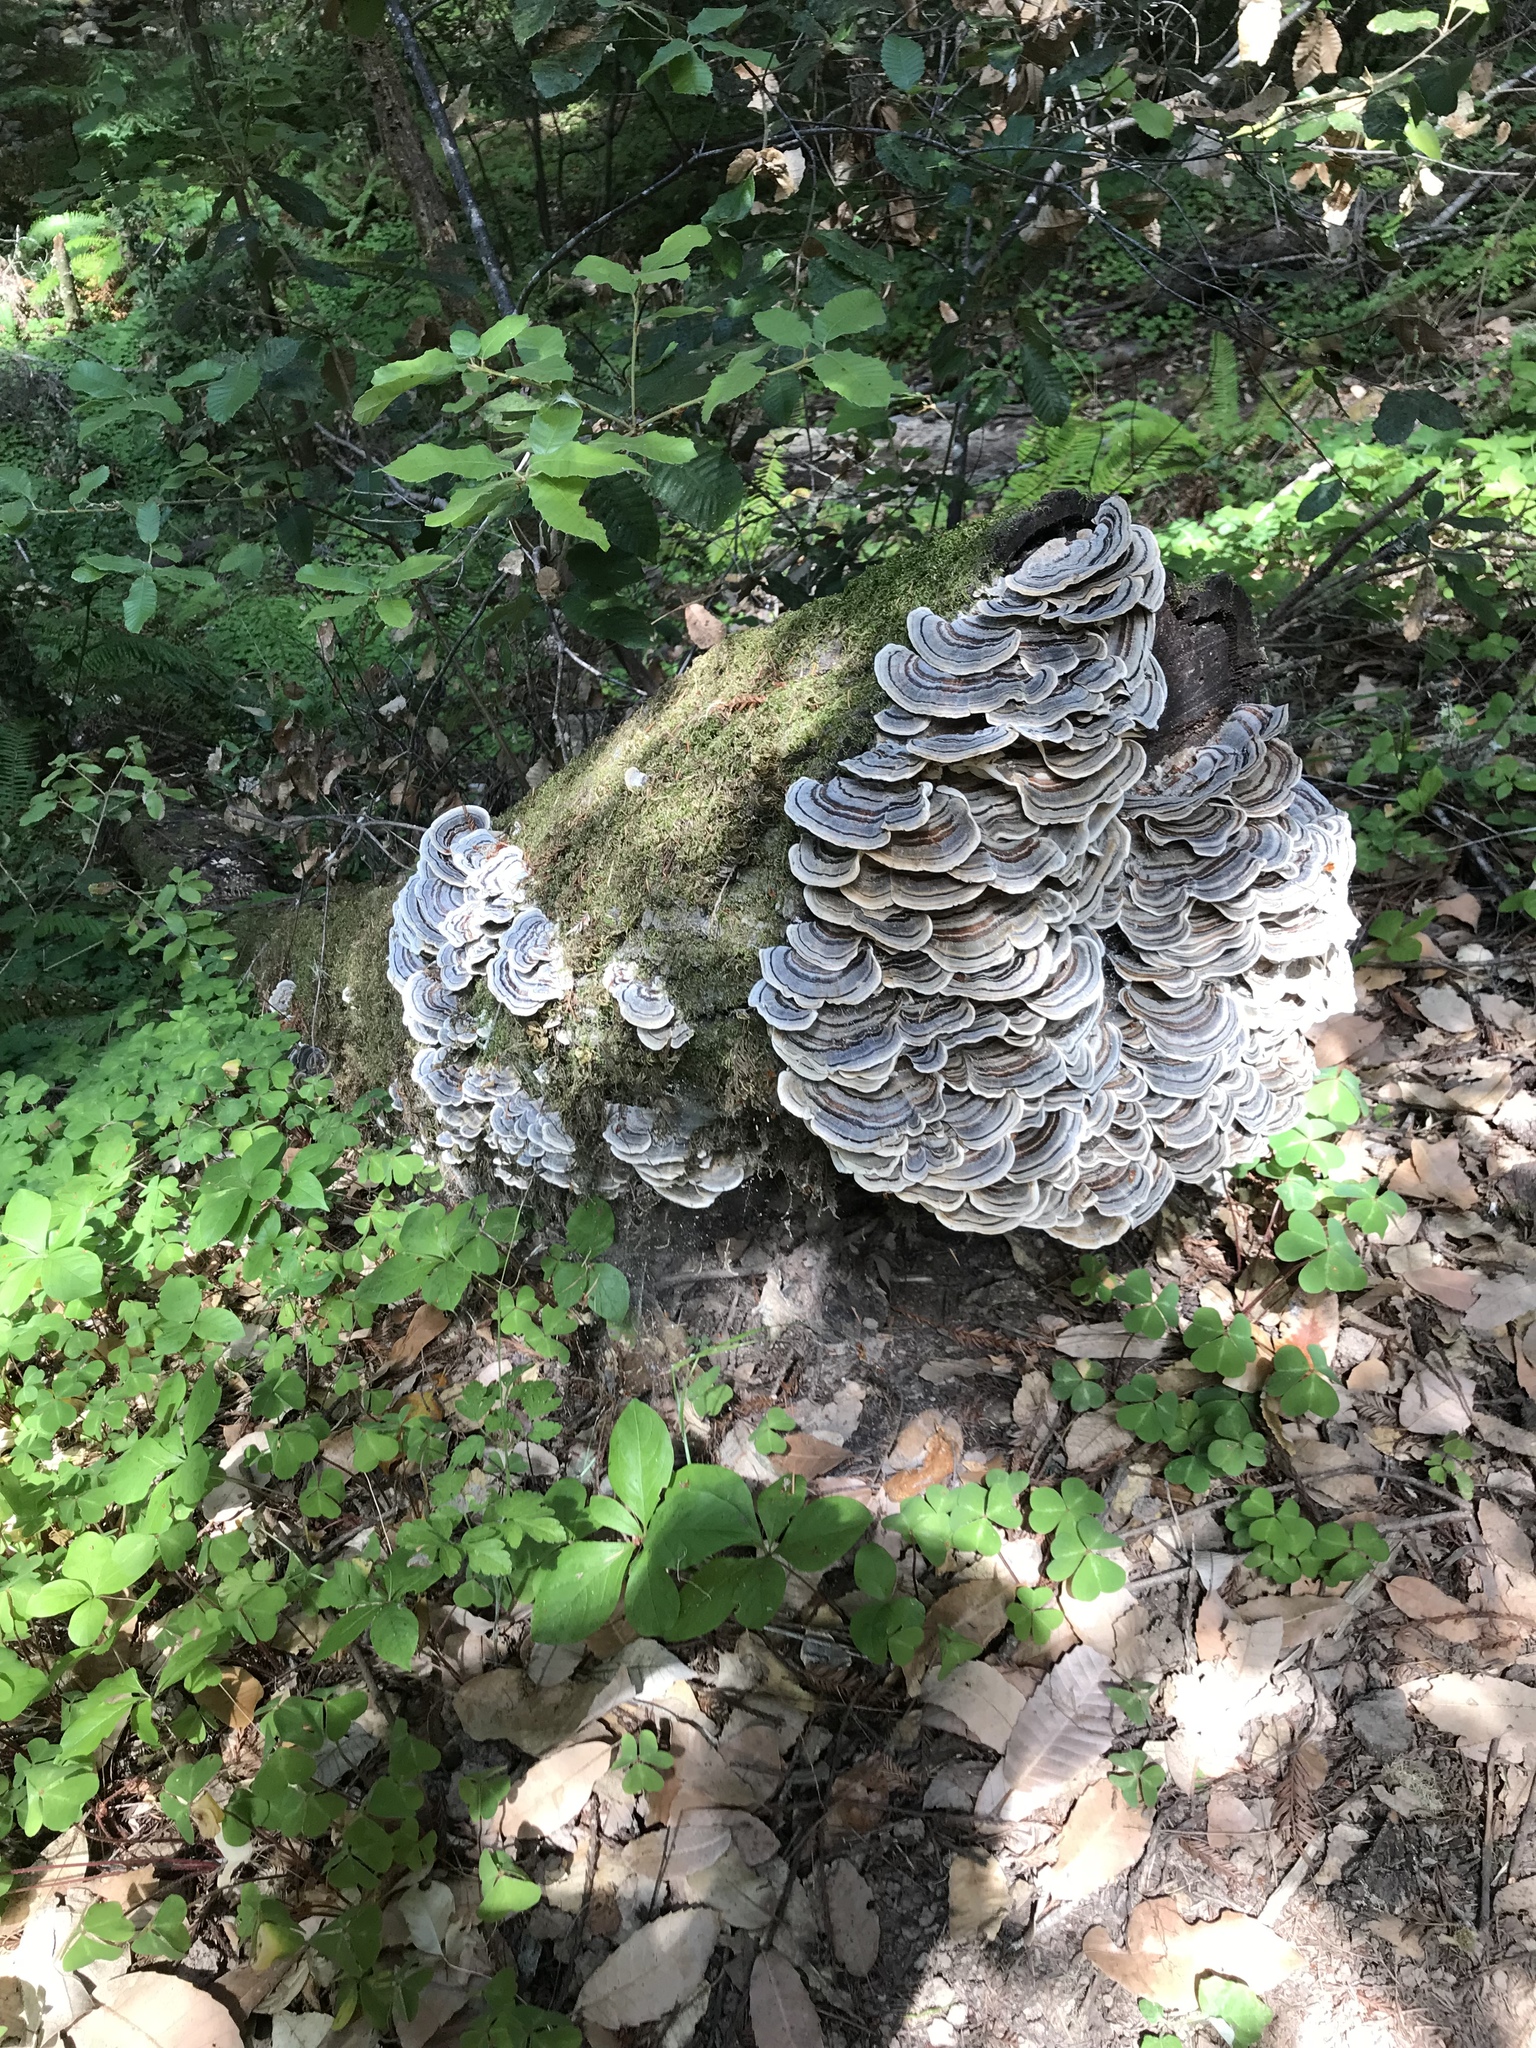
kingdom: Fungi
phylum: Basidiomycota
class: Agaricomycetes
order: Polyporales
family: Polyporaceae
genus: Trametes
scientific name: Trametes versicolor
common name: Turkeytail
